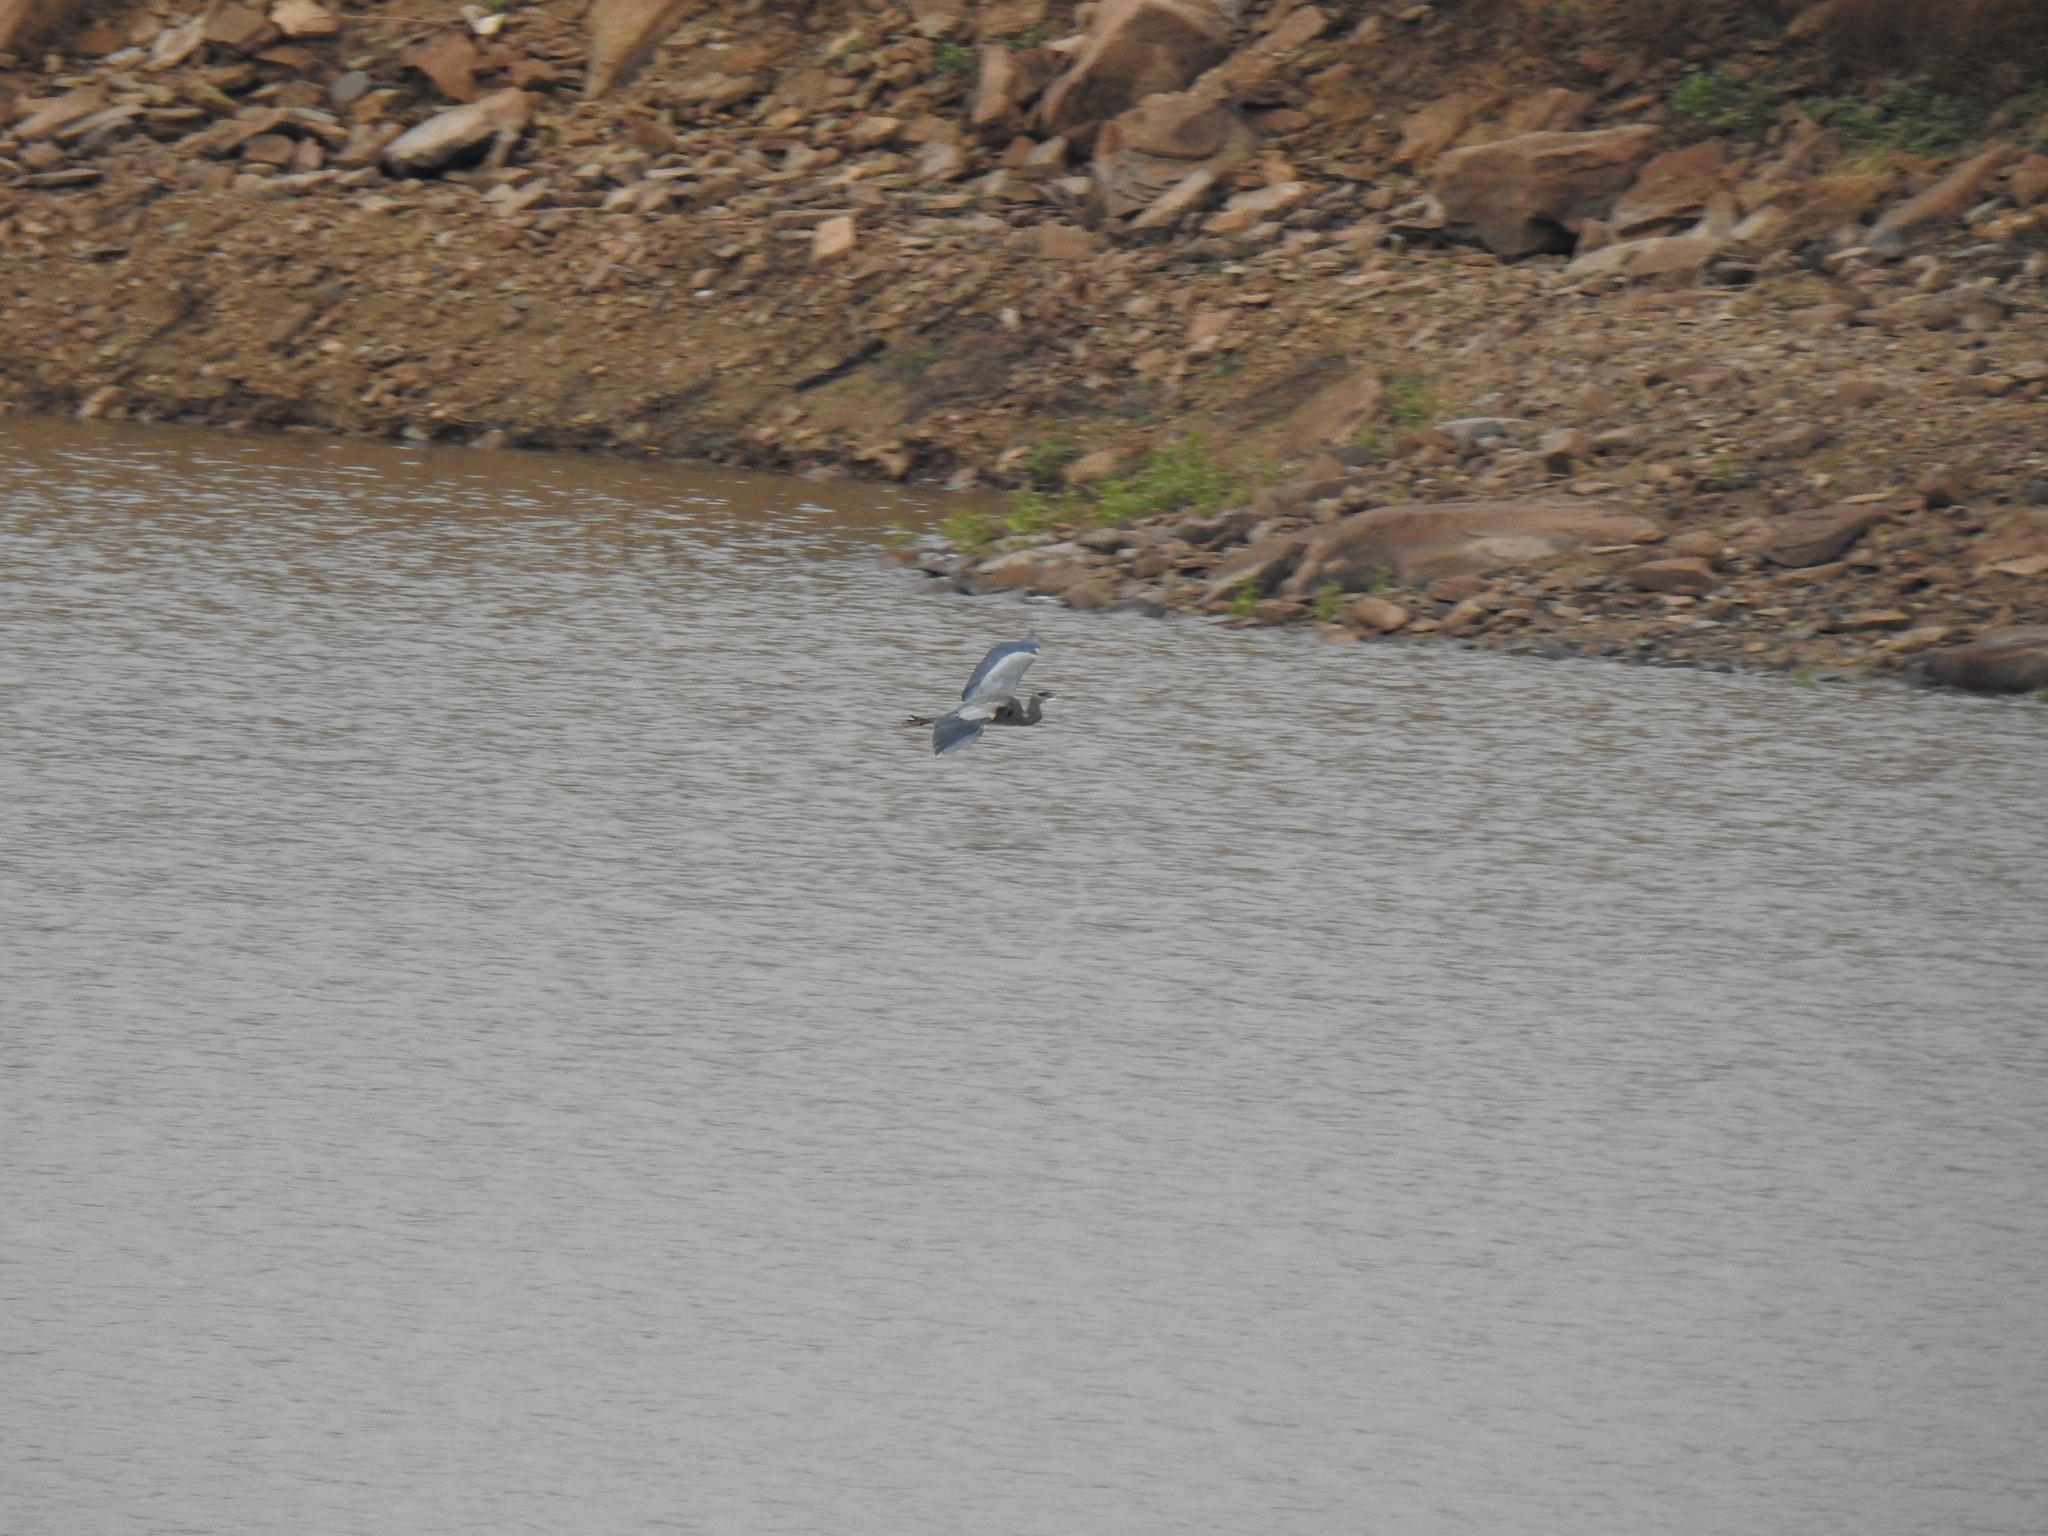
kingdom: Animalia
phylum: Chordata
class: Aves
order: Pelecaniformes
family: Ardeidae
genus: Ardea
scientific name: Ardea herodias
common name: Great blue heron
